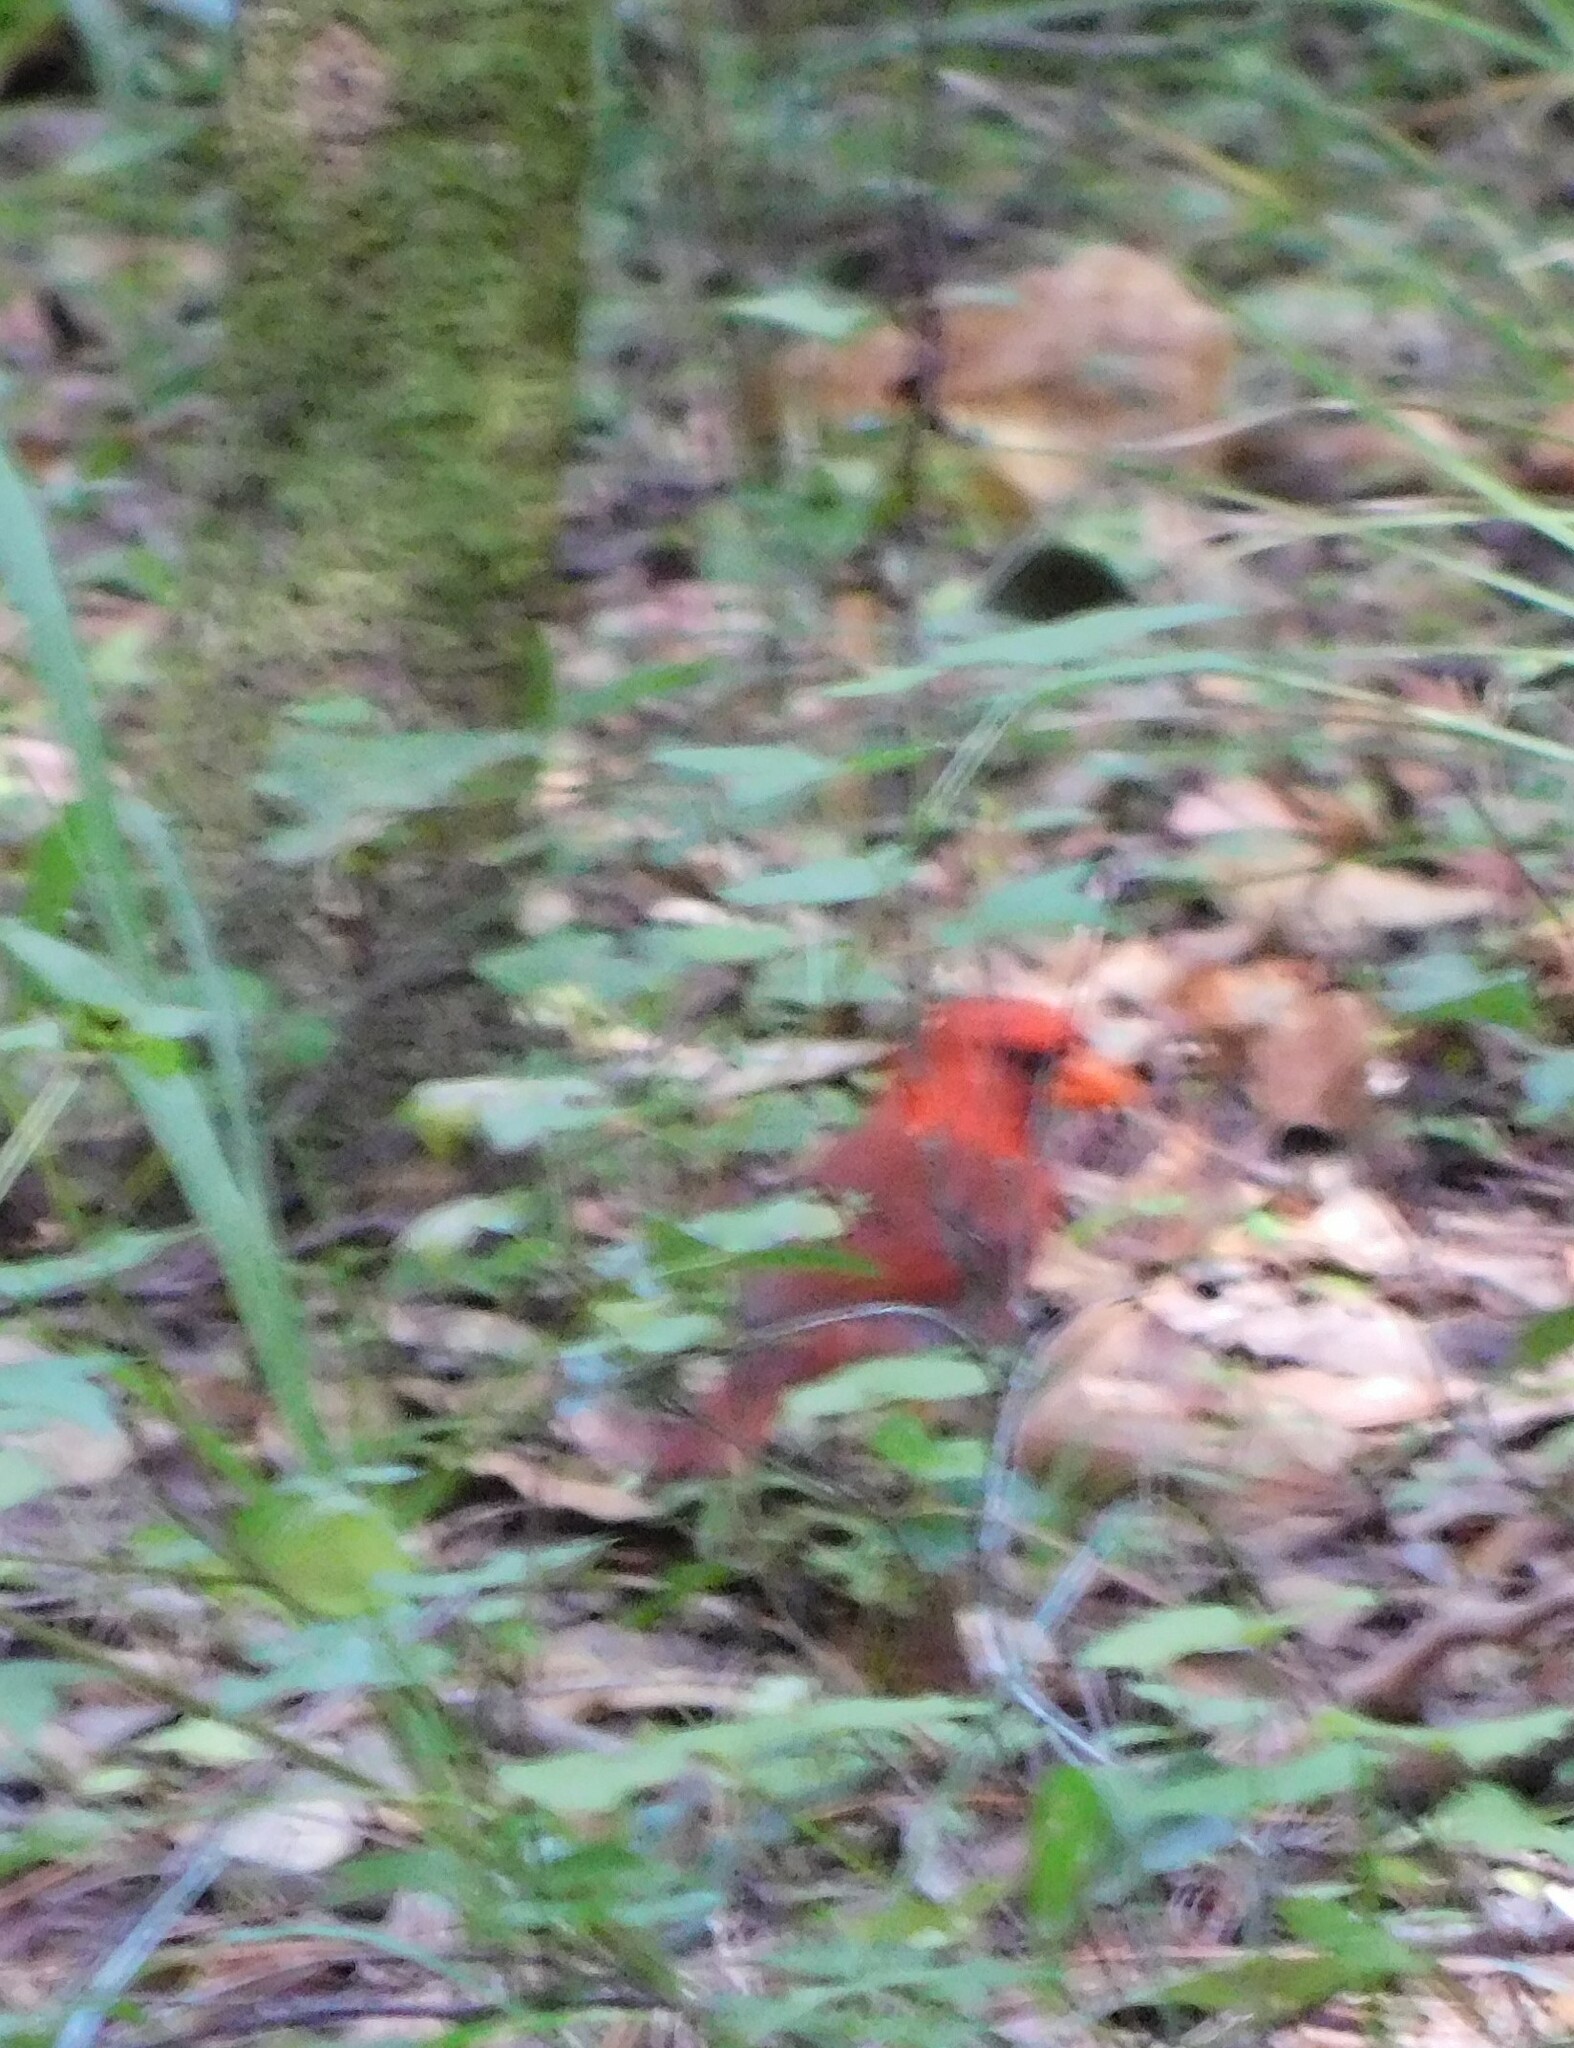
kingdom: Animalia
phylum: Chordata
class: Aves
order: Passeriformes
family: Cardinalidae
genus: Cardinalis
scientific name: Cardinalis cardinalis
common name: Northern cardinal
